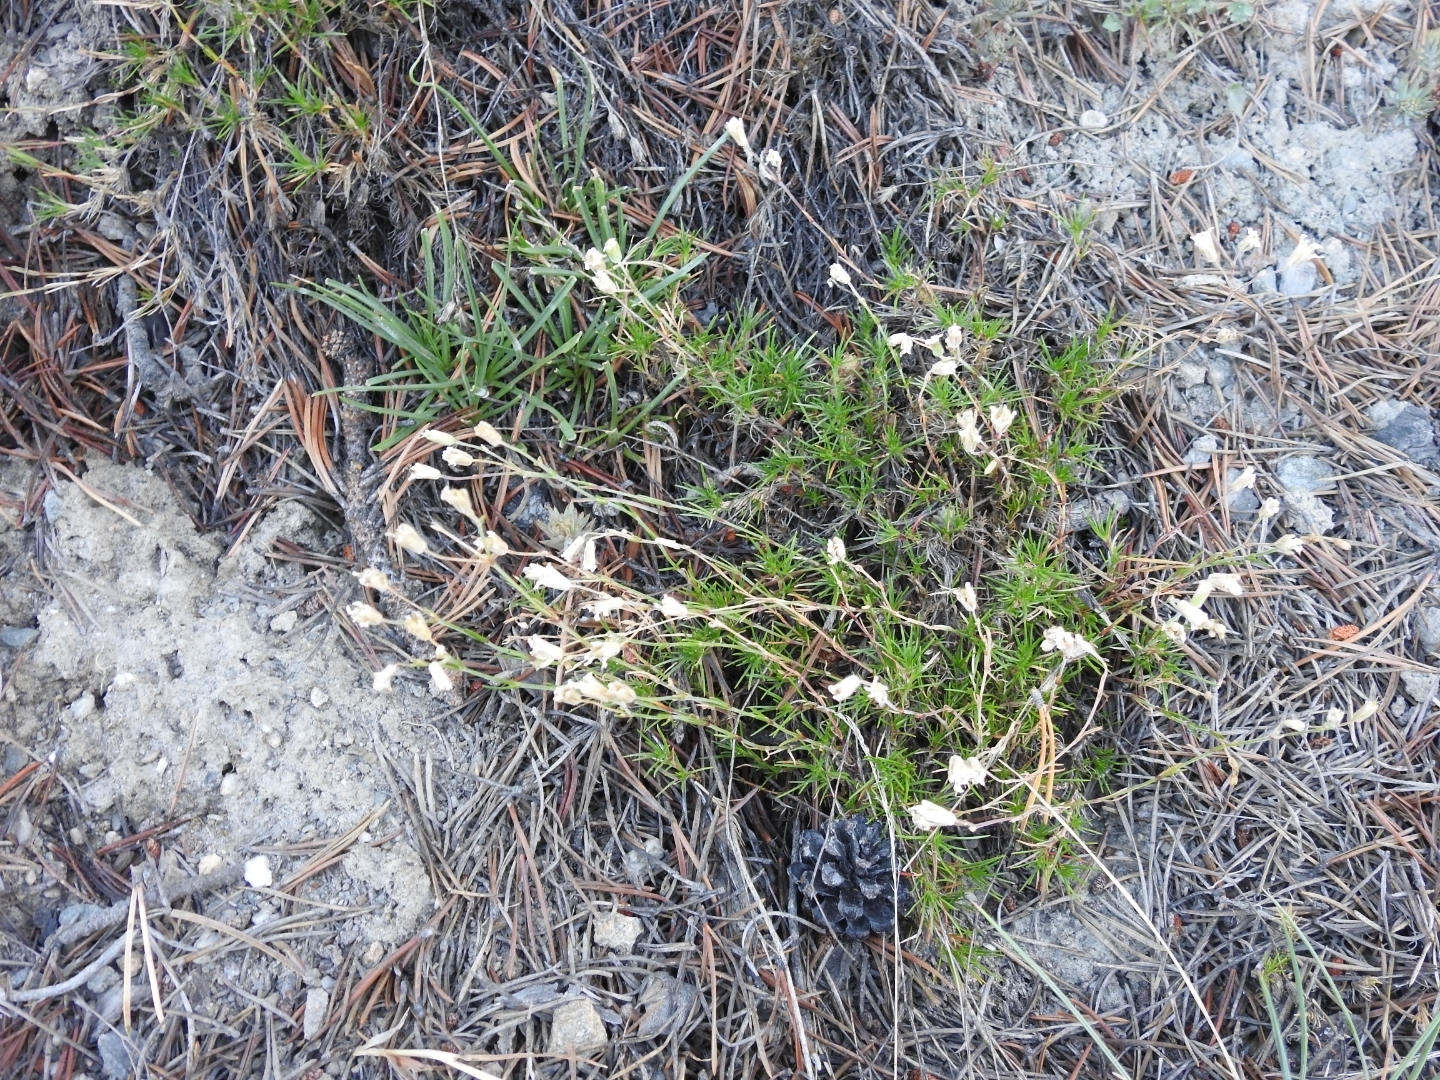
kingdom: Plantae
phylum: Tracheophyta
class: Magnoliopsida
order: Caryophyllales
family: Caryophyllaceae
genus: Cherleria
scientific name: Cherleria laricifolia
